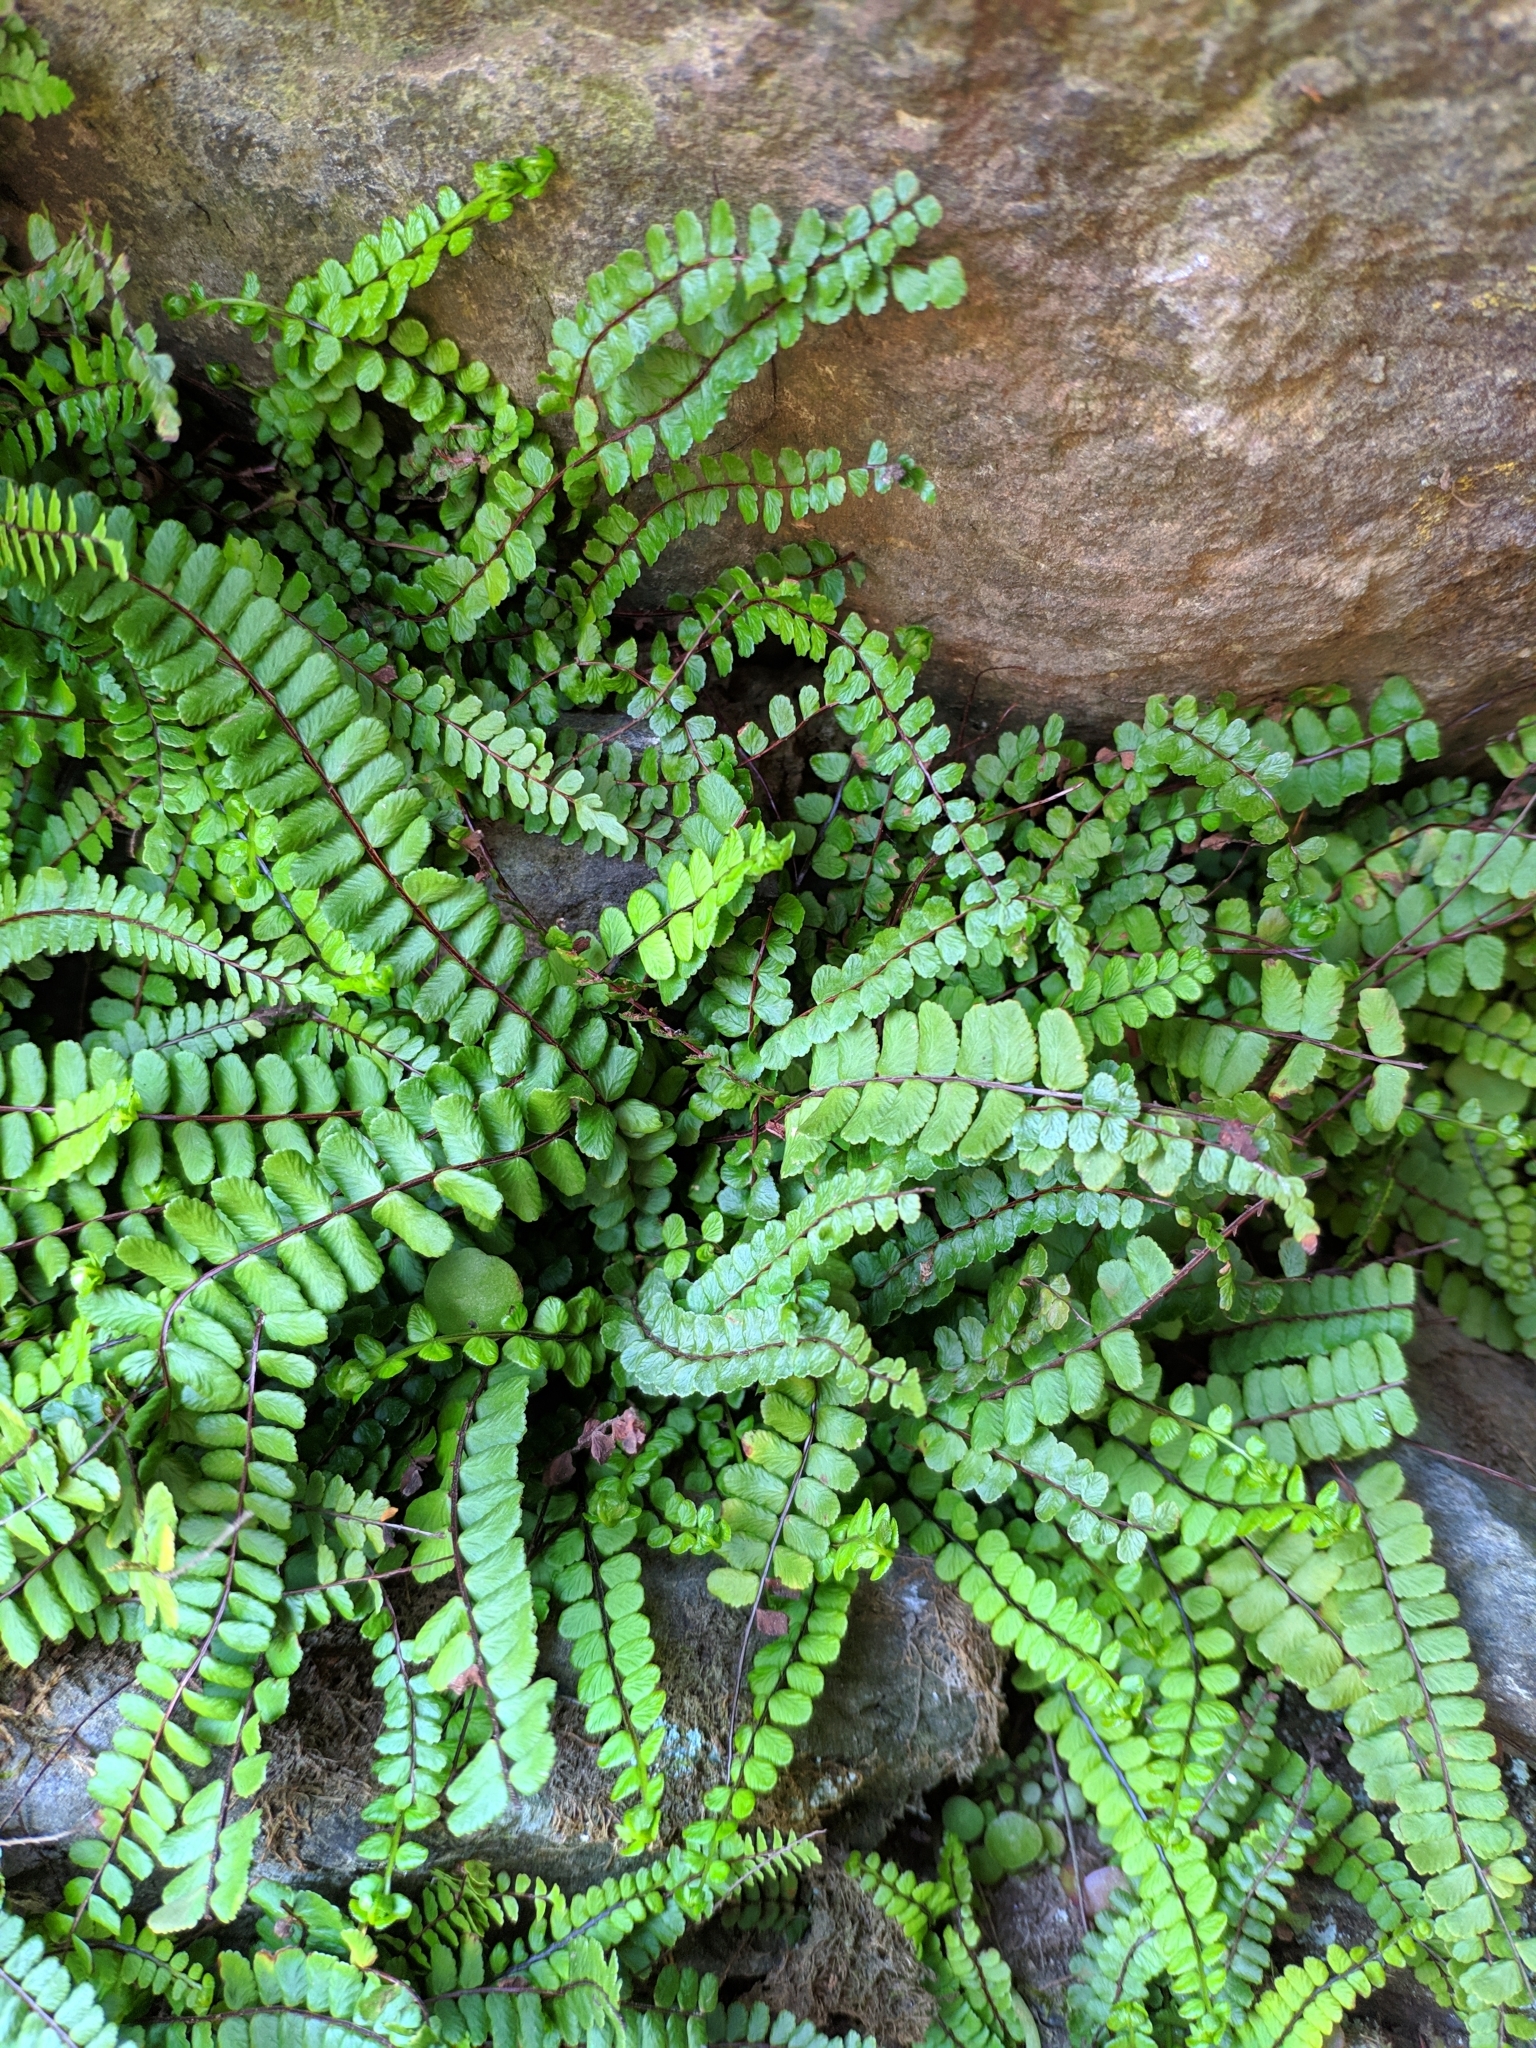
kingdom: Plantae
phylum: Tracheophyta
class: Polypodiopsida
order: Polypodiales
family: Aspleniaceae
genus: Asplenium
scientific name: Asplenium trichomanes
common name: Maidenhair spleenwort
